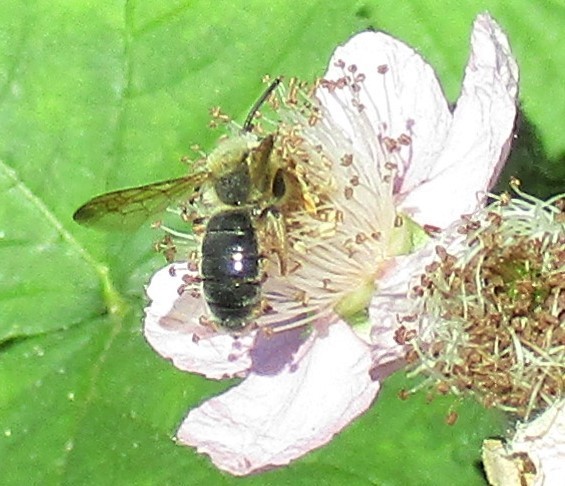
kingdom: Animalia
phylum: Arthropoda
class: Insecta
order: Hymenoptera
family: Andrenidae
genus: Andrena
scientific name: Andrena prunorum
